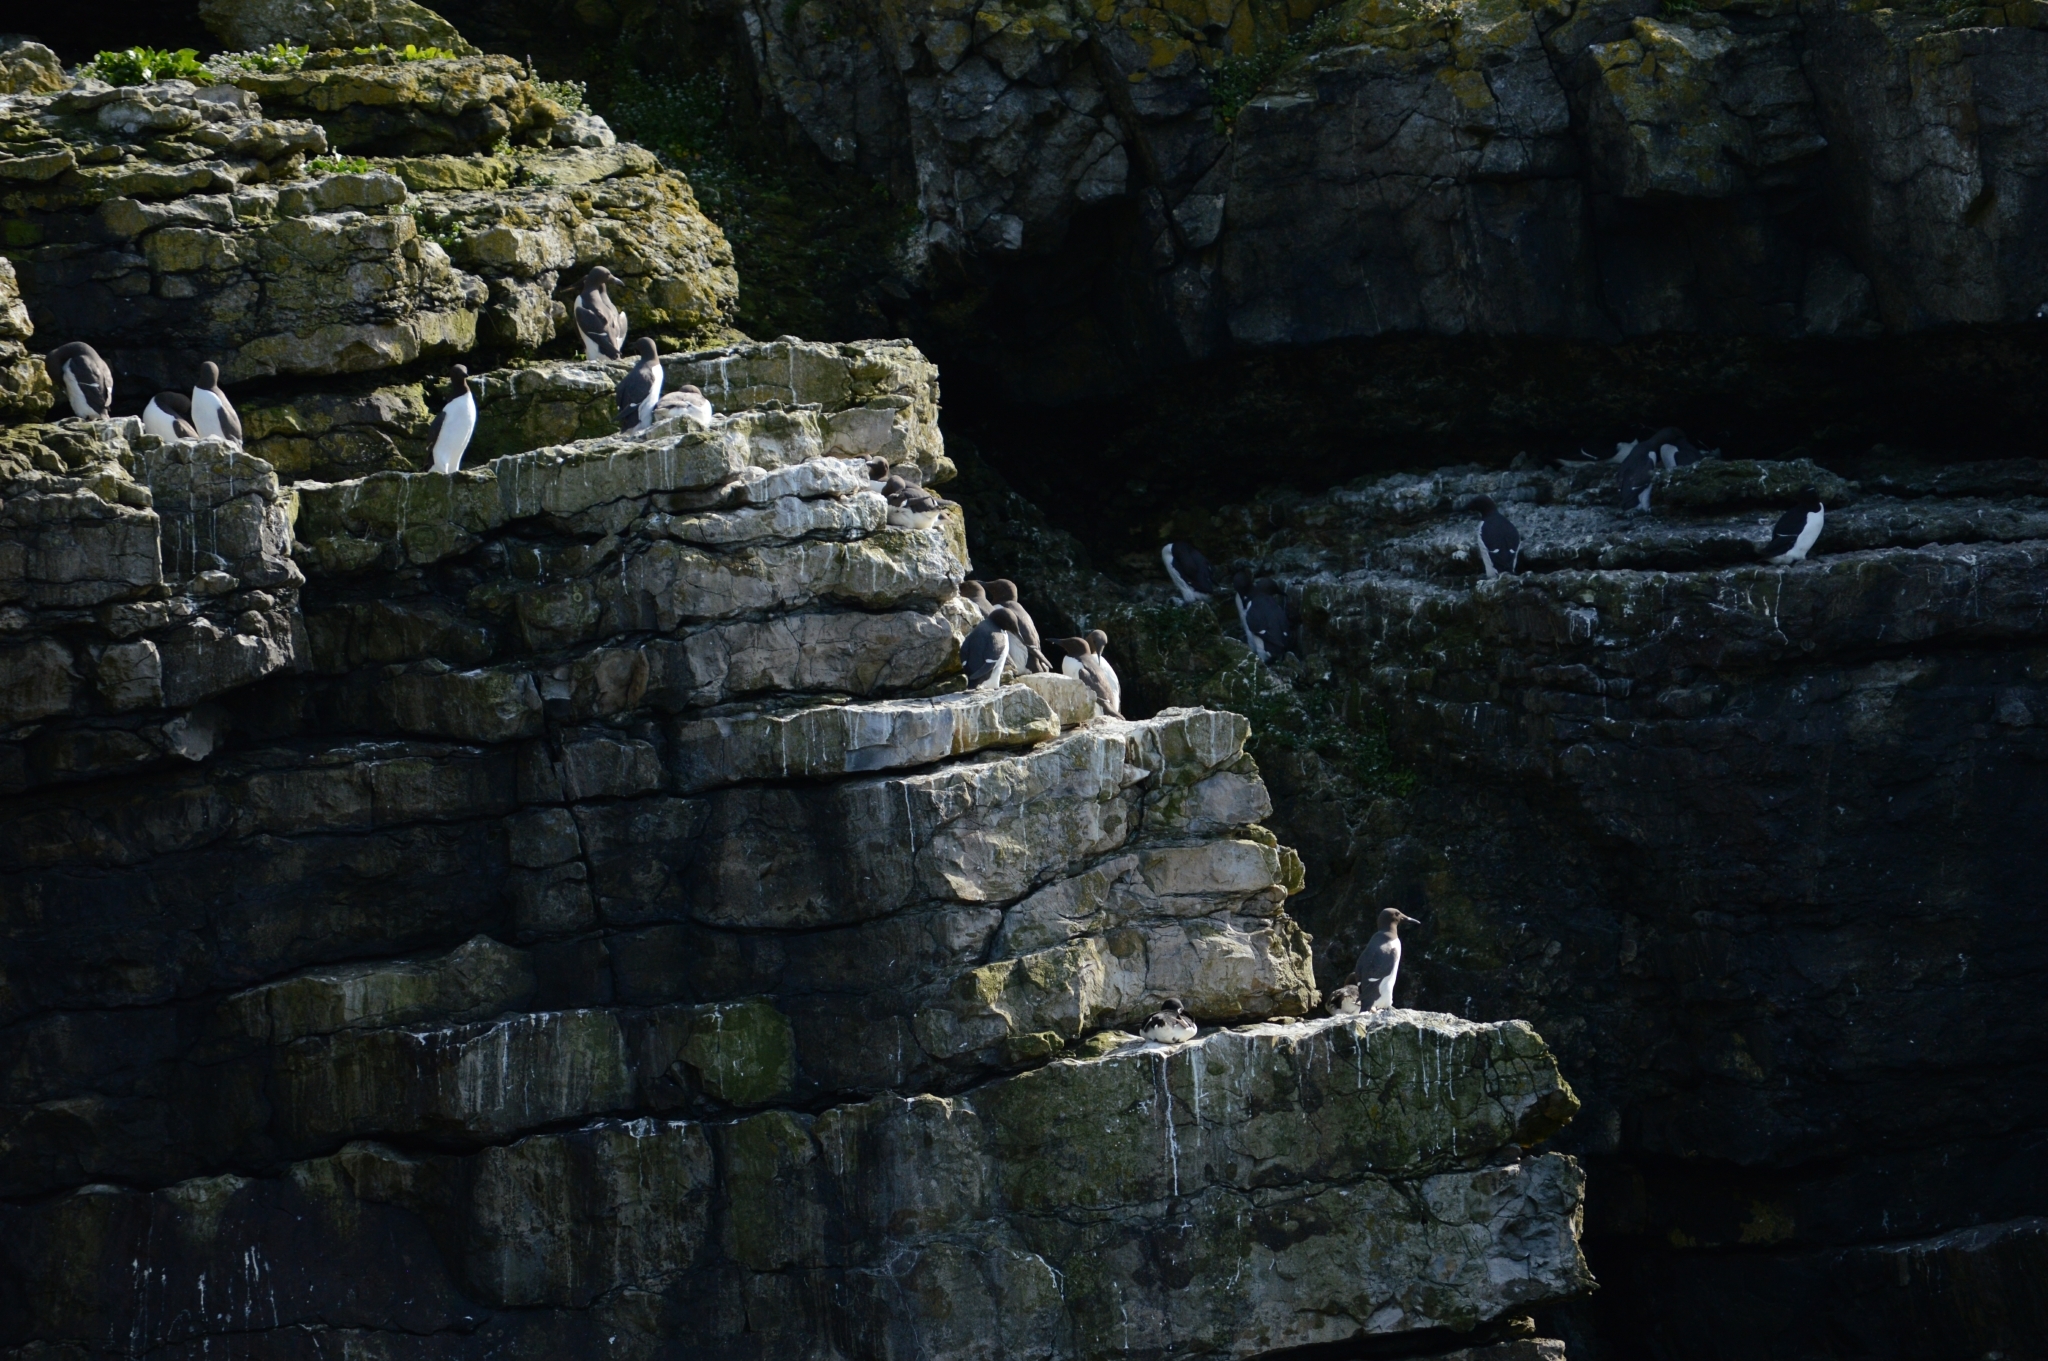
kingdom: Animalia
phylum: Chordata
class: Aves
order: Charadriiformes
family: Alcidae
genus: Uria
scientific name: Uria aalge
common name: Common murre
